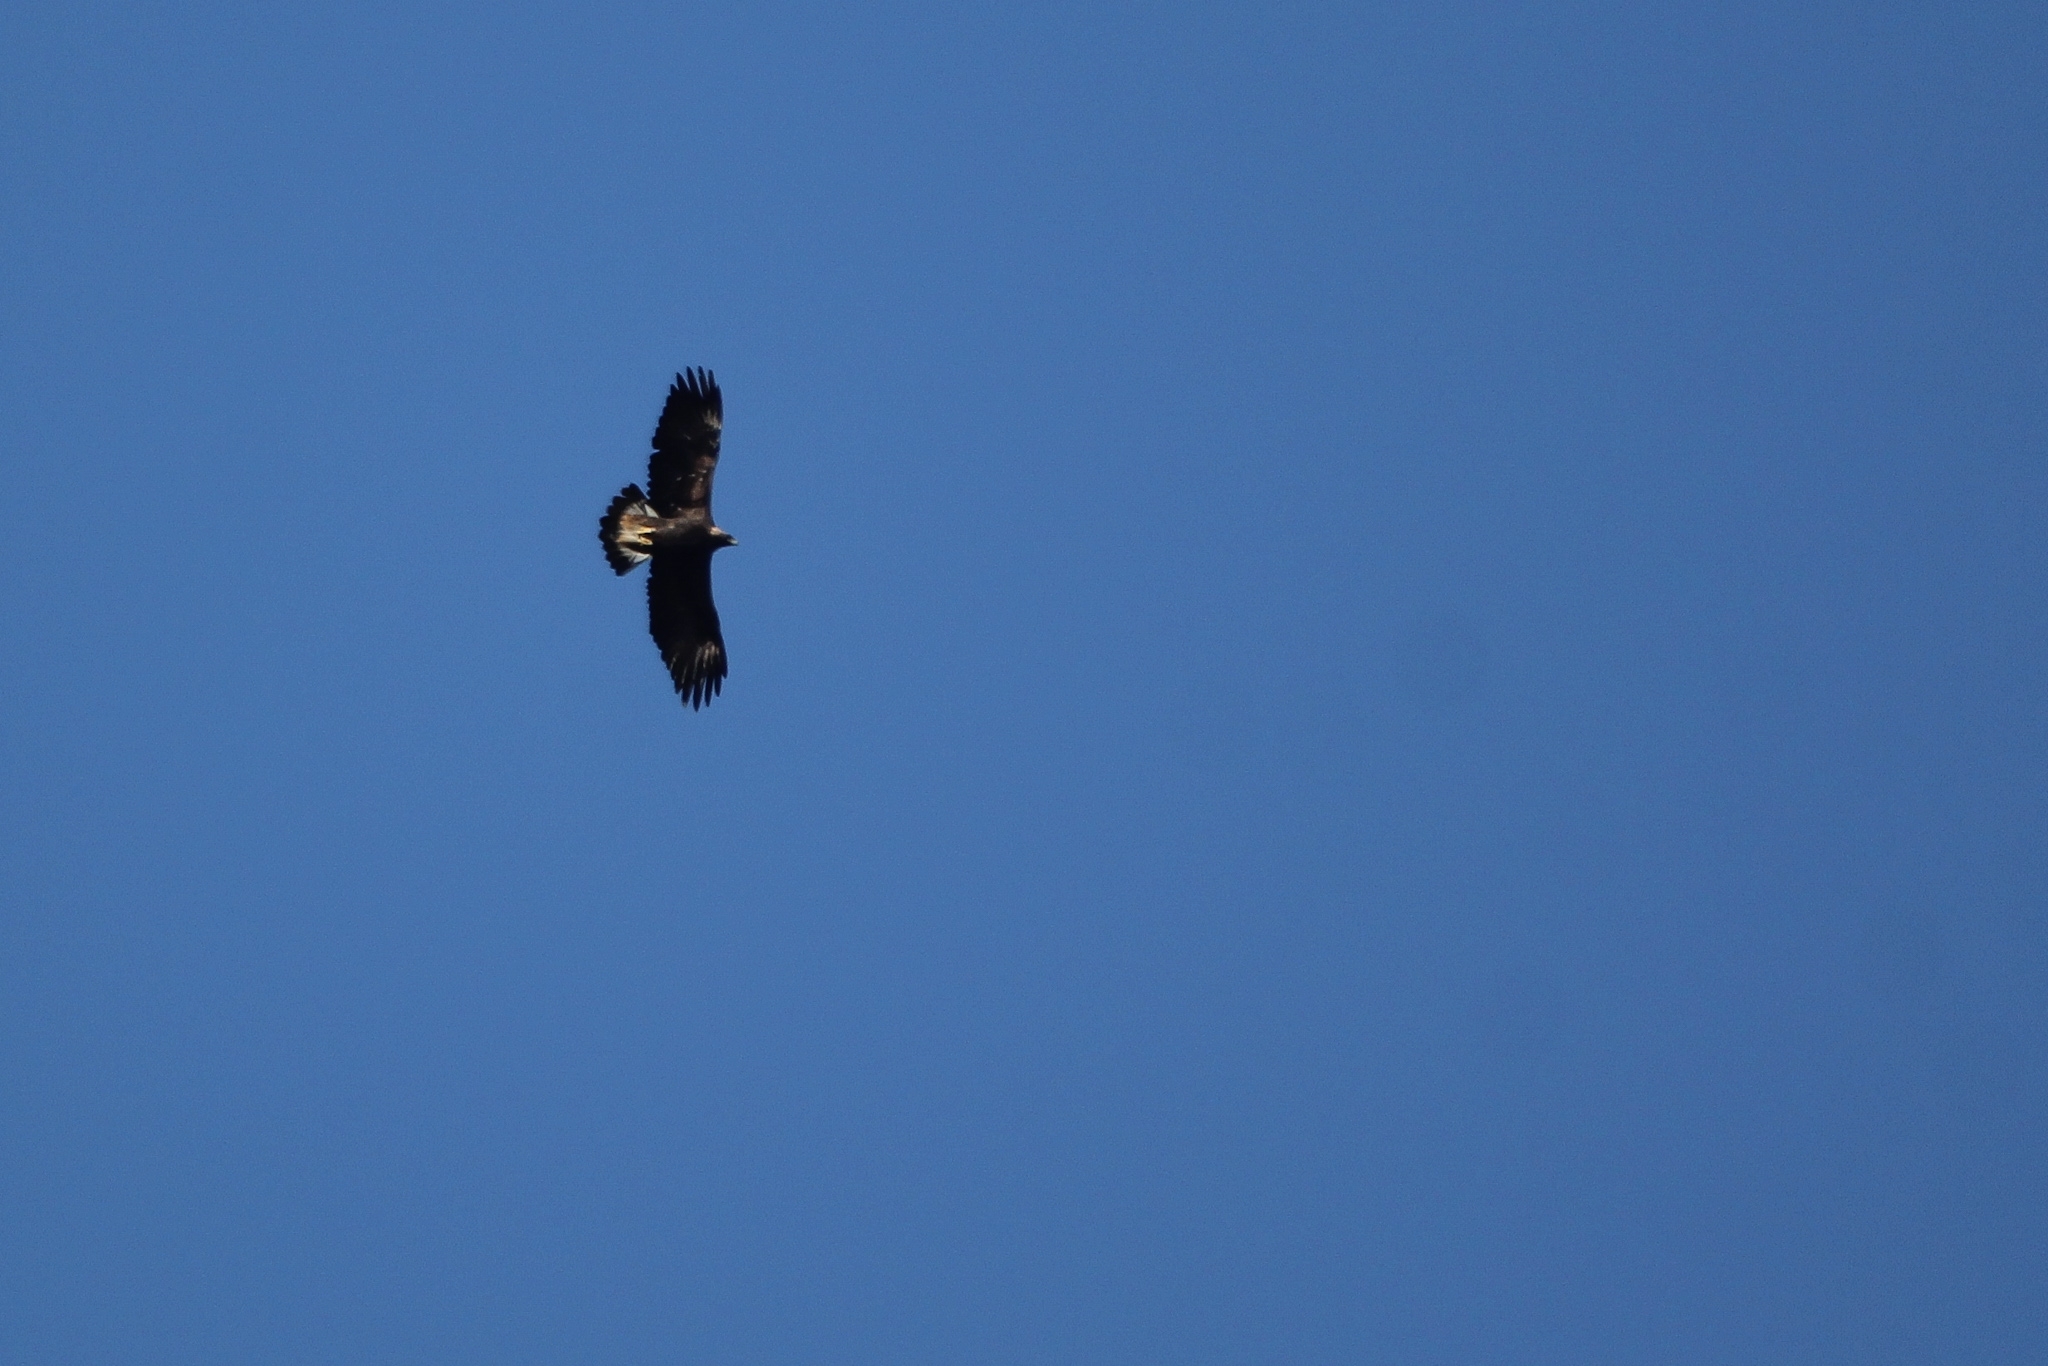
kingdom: Animalia
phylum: Chordata
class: Aves
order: Accipitriformes
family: Accipitridae
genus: Aquila
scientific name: Aquila chrysaetos
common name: Golden eagle
